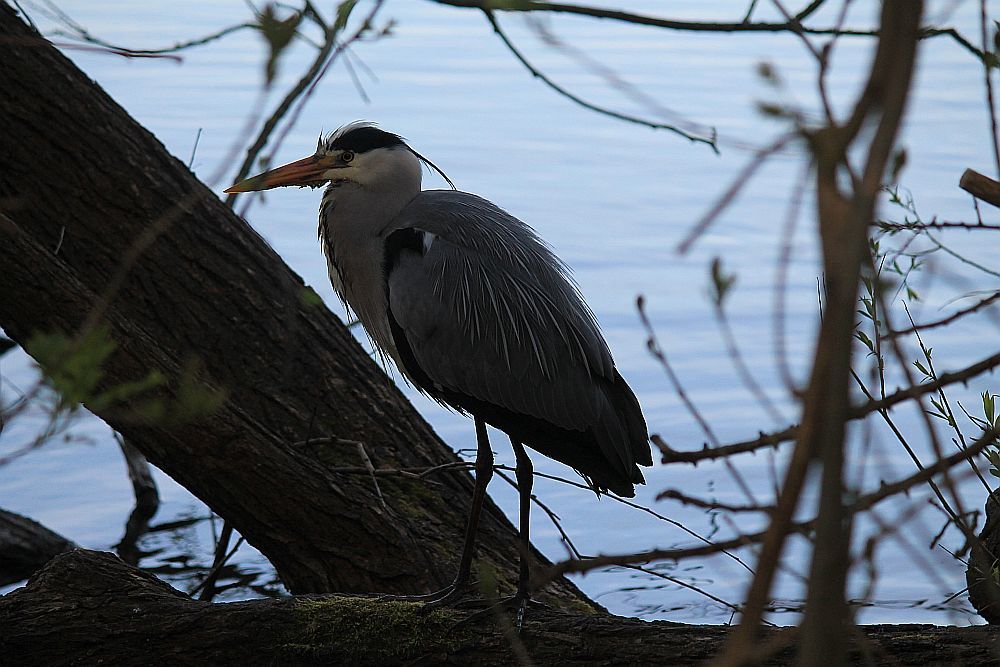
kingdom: Animalia
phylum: Chordata
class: Aves
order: Pelecaniformes
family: Ardeidae
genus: Ardea
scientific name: Ardea cinerea
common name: Grey heron
